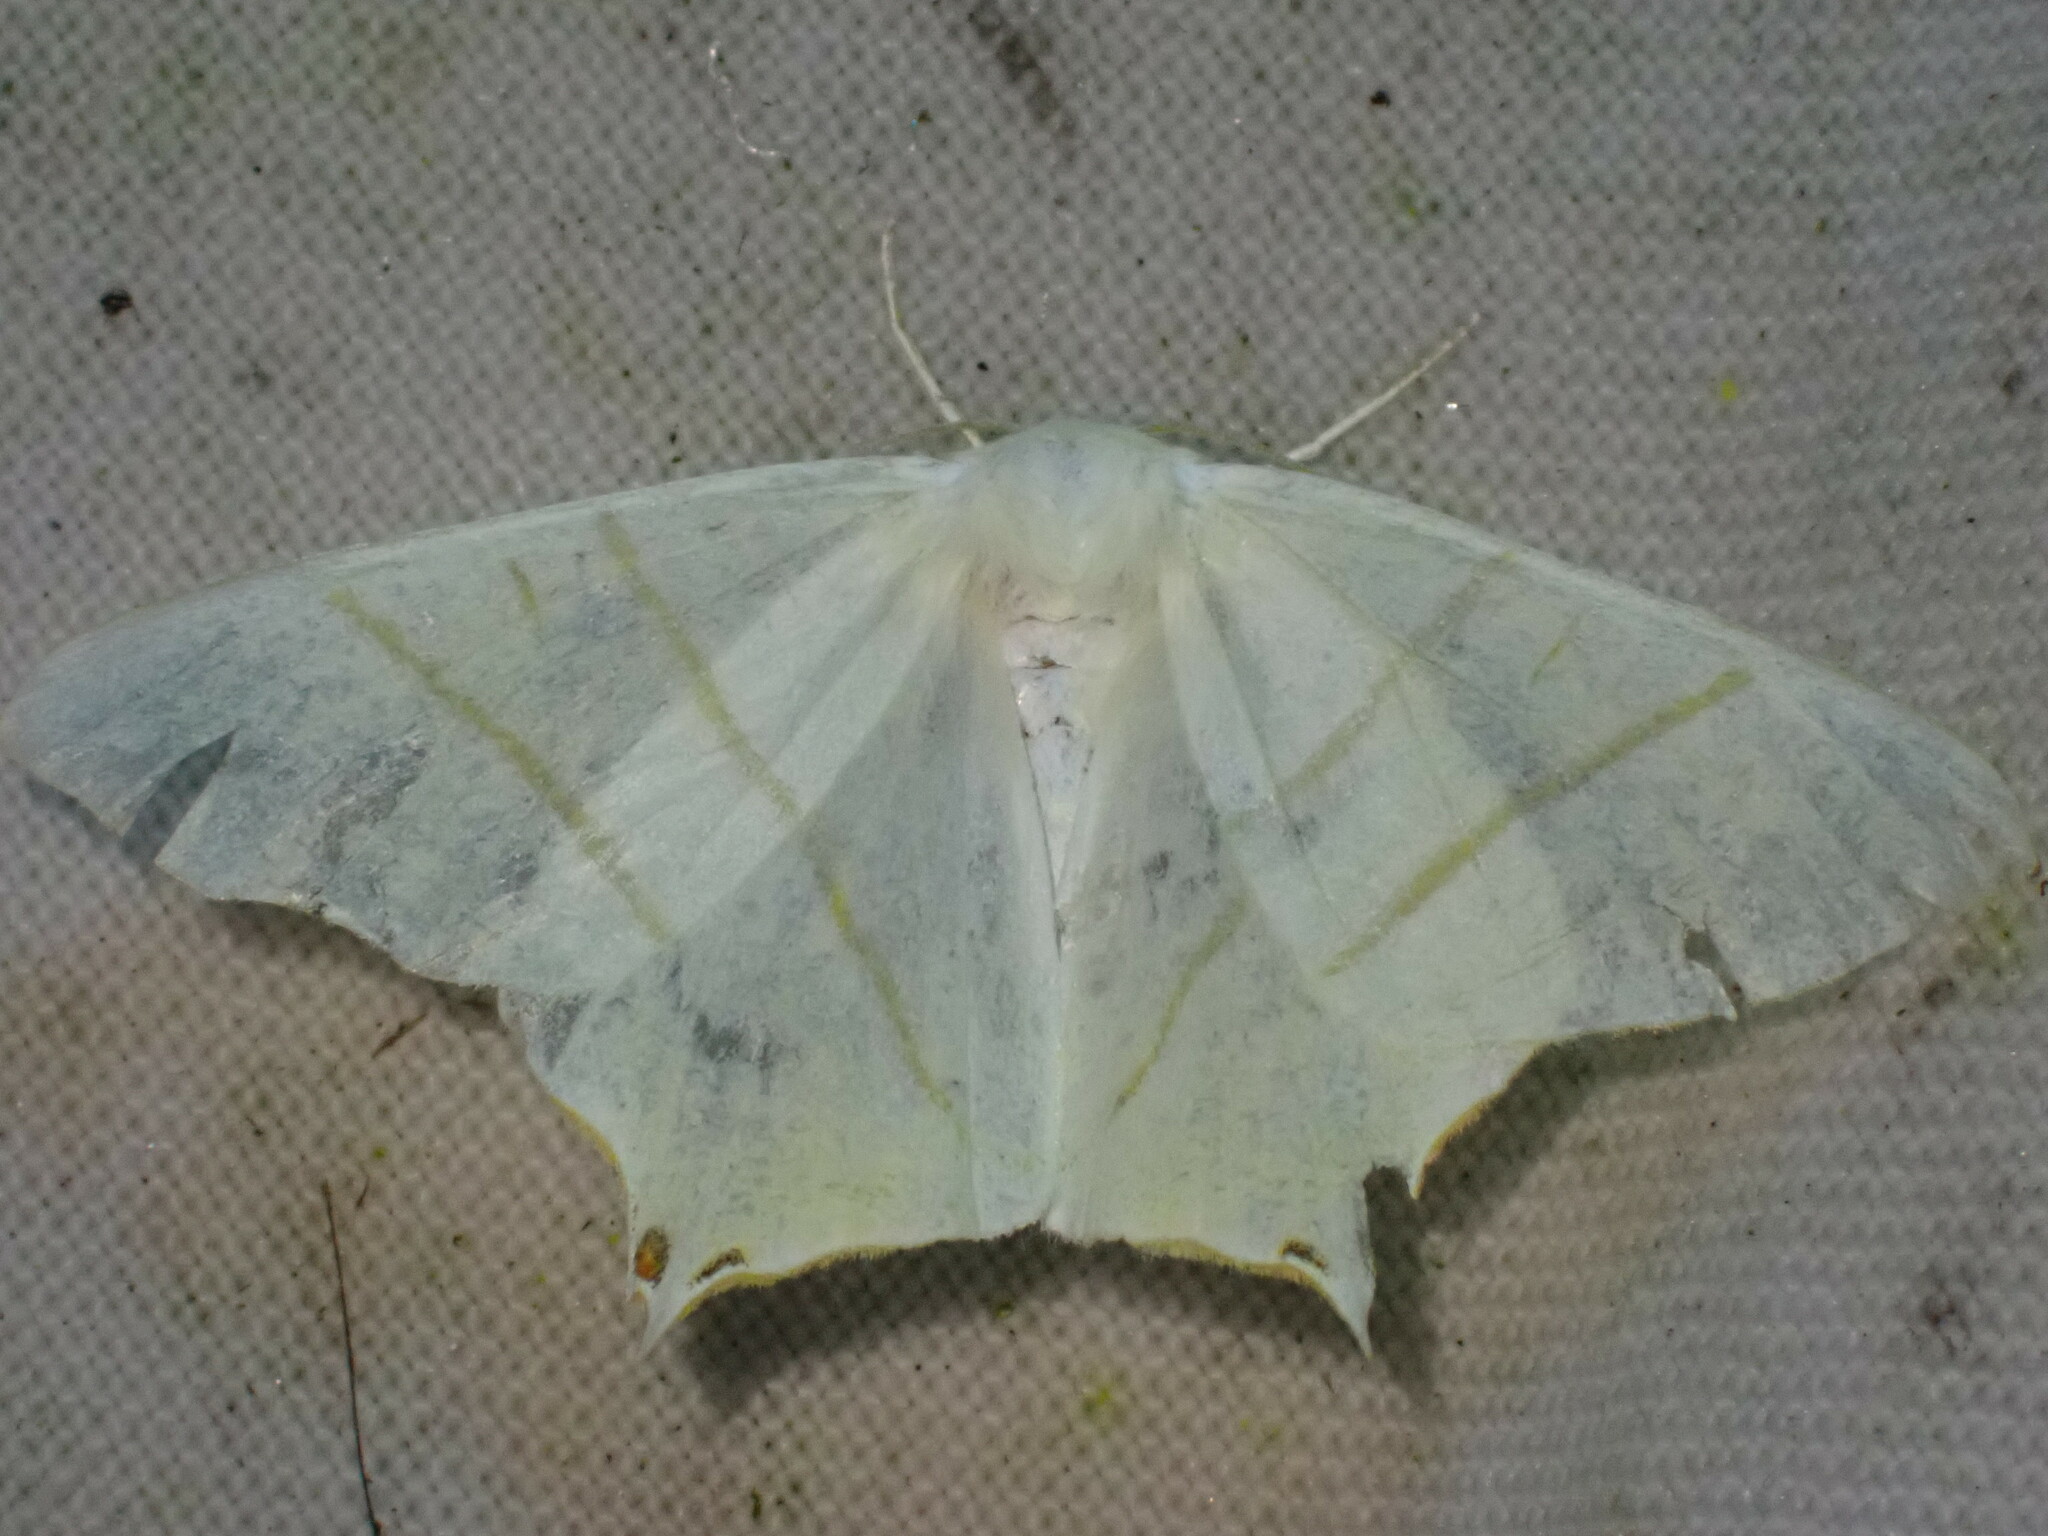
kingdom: Animalia
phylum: Arthropoda
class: Insecta
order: Lepidoptera
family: Geometridae
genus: Ourapteryx
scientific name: Ourapteryx sambucaria
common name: Swallow-tailed moth
